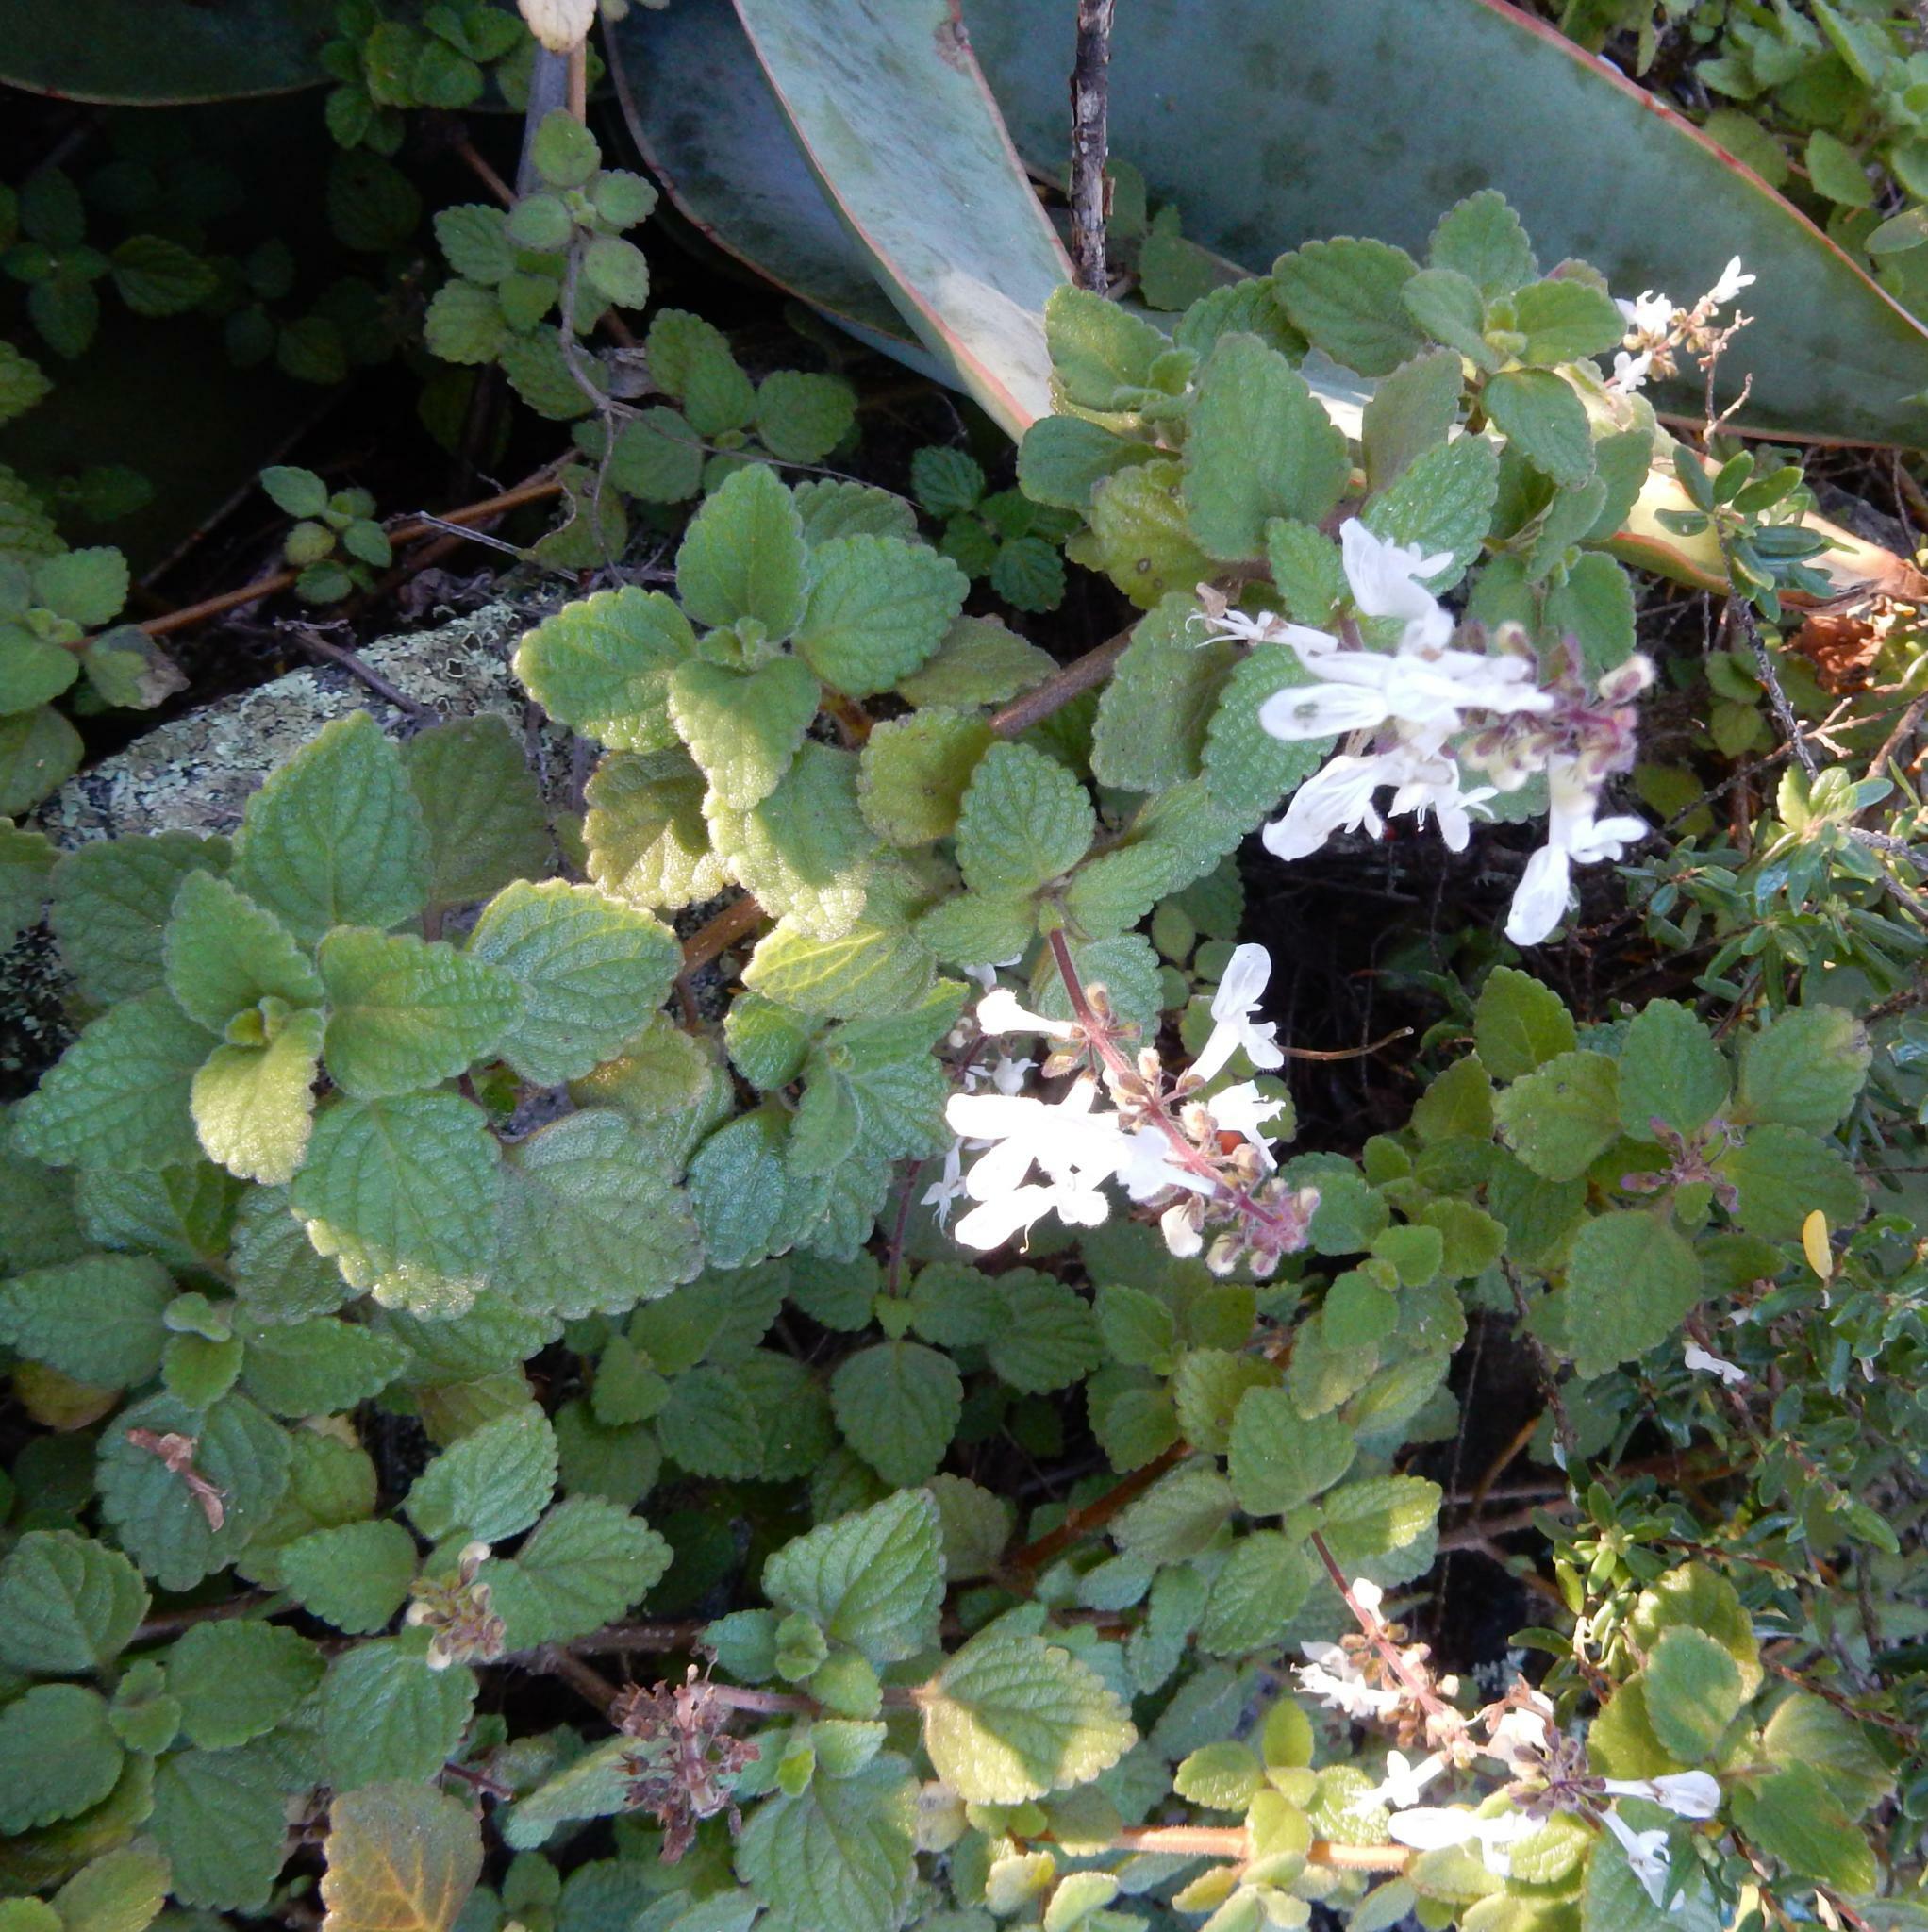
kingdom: Plantae
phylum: Tracheophyta
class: Magnoliopsida
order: Lamiales
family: Lamiaceae
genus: Coleus
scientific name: Coleus madagascariensis
